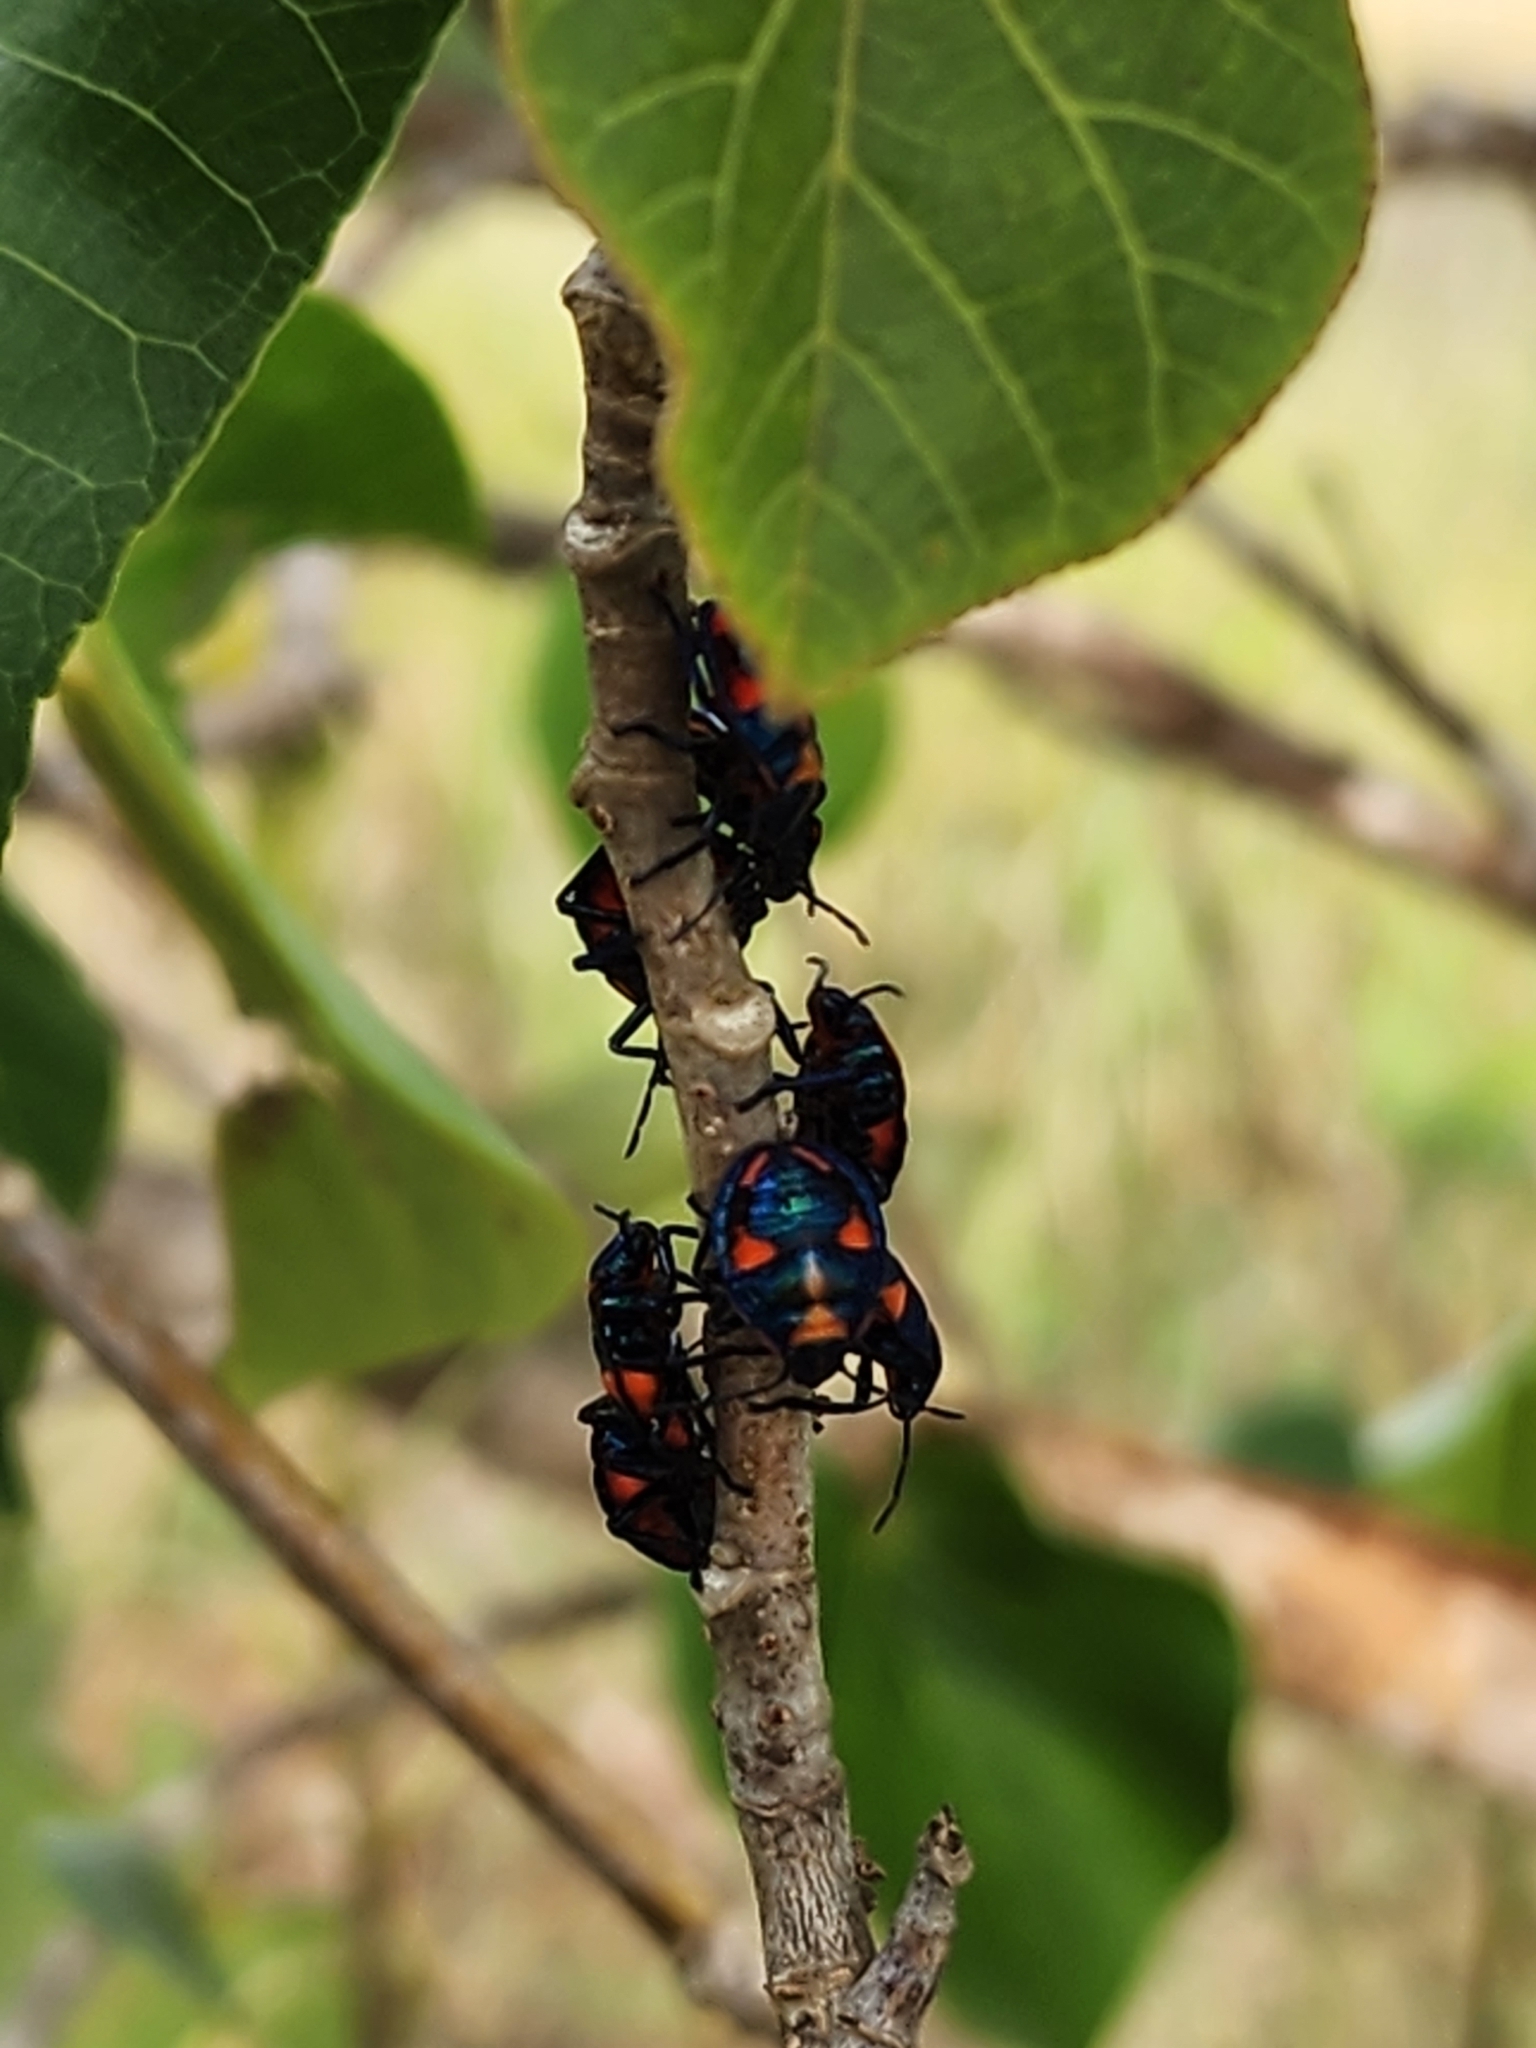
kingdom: Animalia
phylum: Arthropoda
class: Insecta
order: Hemiptera
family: Scutelleridae
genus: Tectocoris
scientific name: Tectocoris diophthalmus
